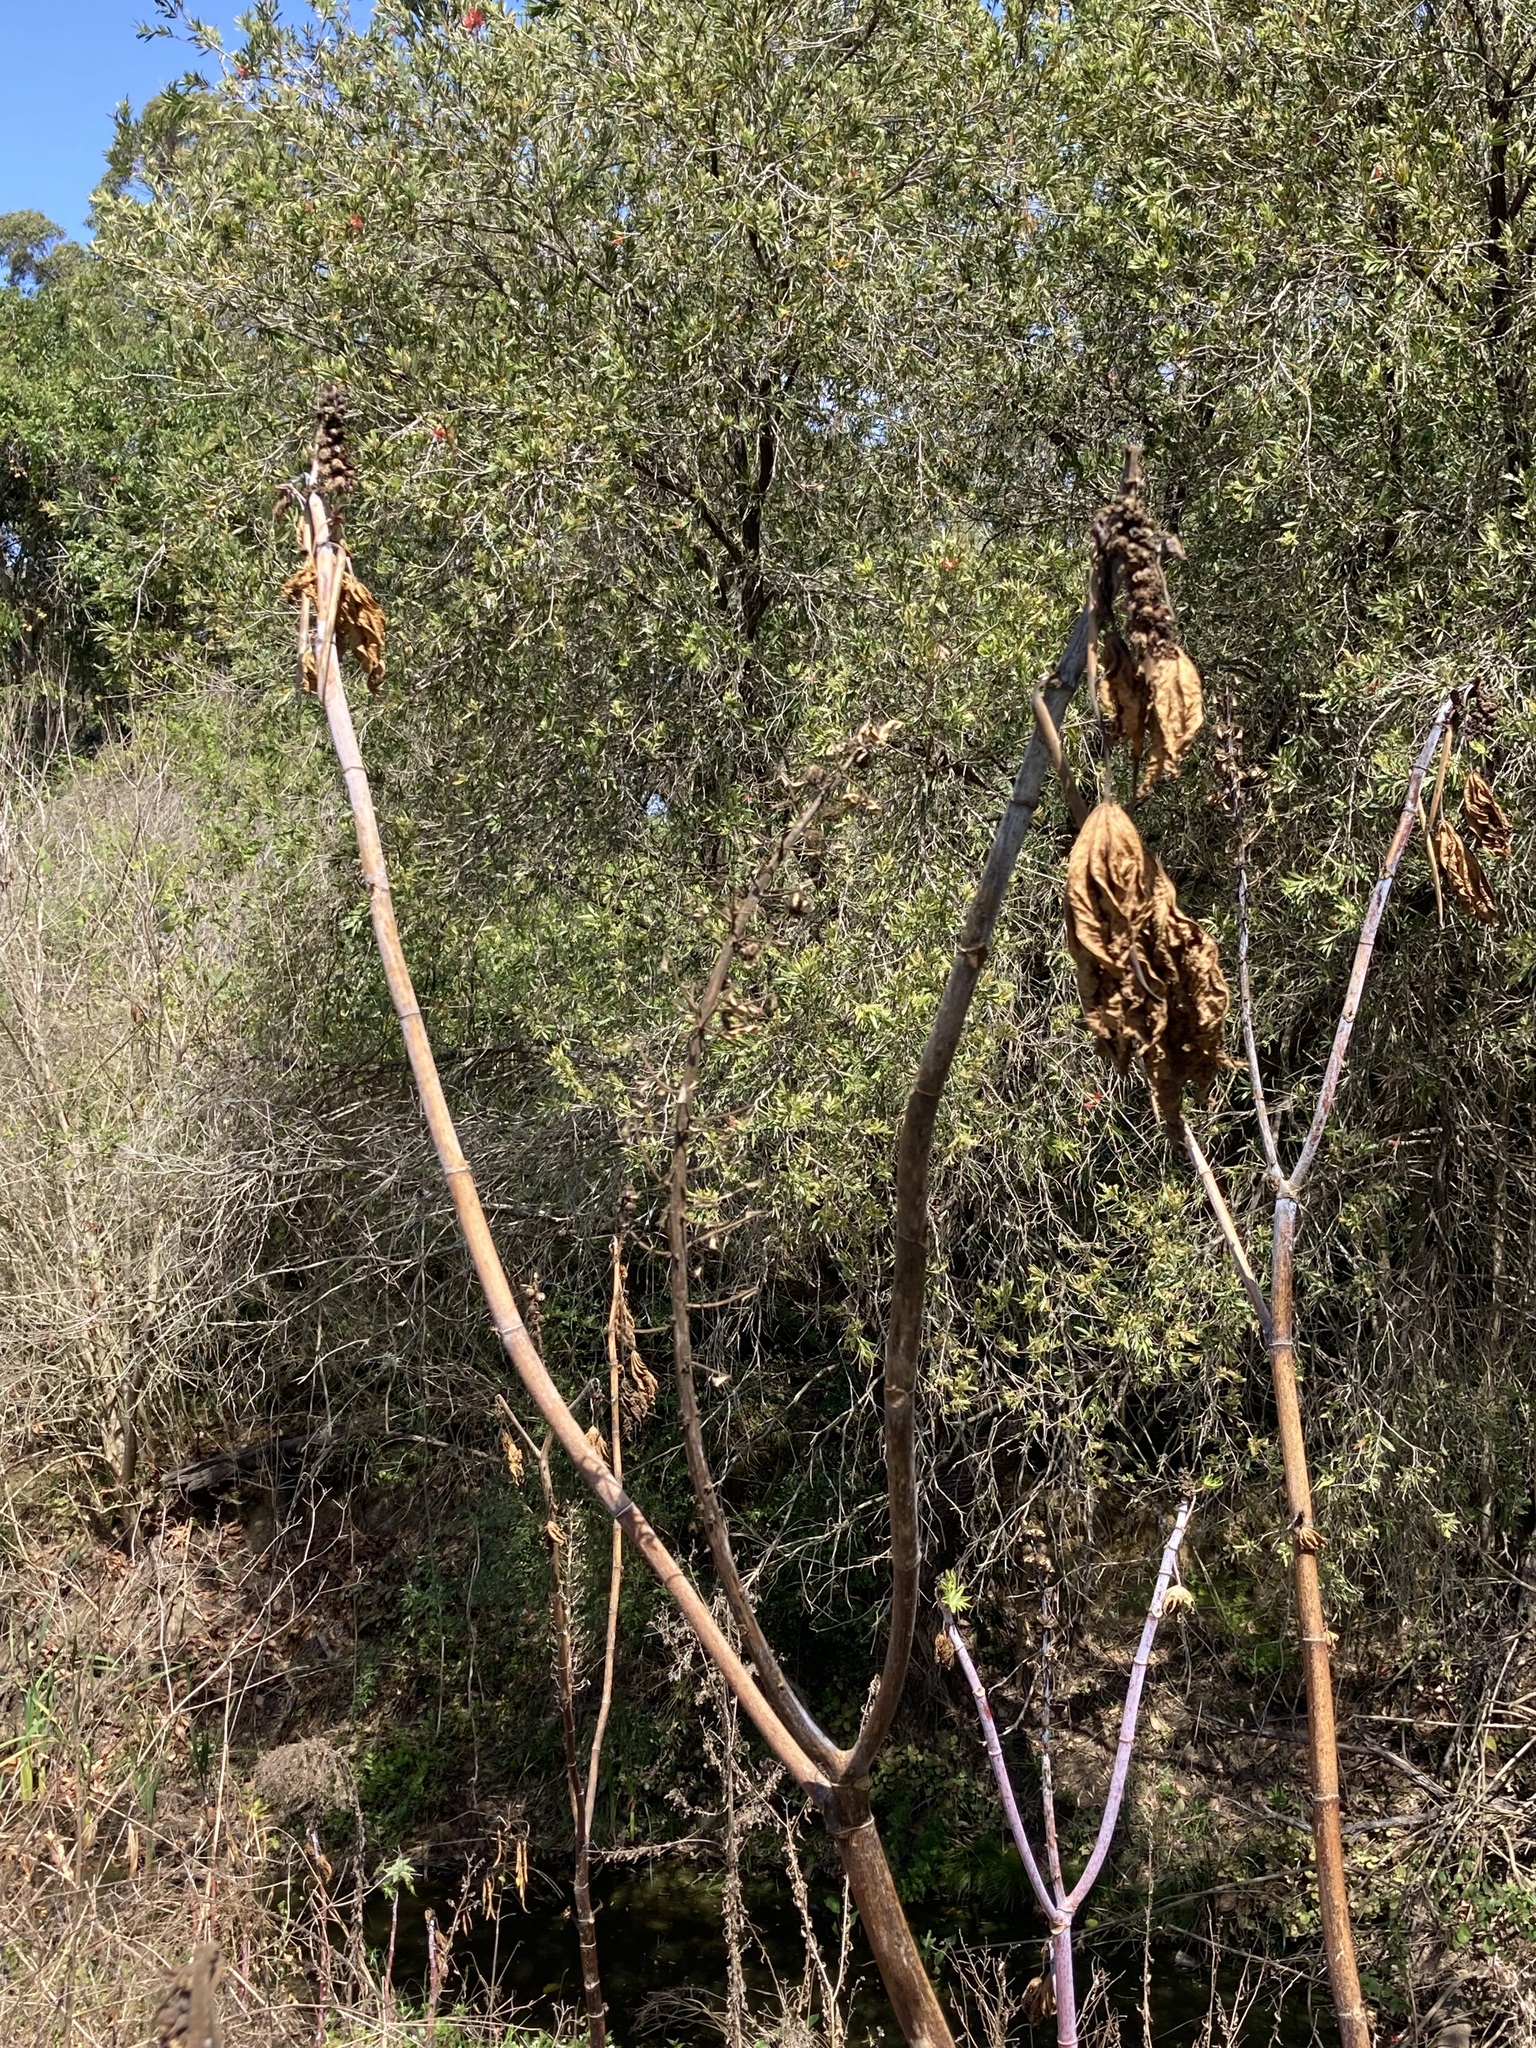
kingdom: Plantae
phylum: Tracheophyta
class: Magnoliopsida
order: Malpighiales
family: Euphorbiaceae
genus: Ricinus
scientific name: Ricinus communis
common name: Castor-oil-plant
